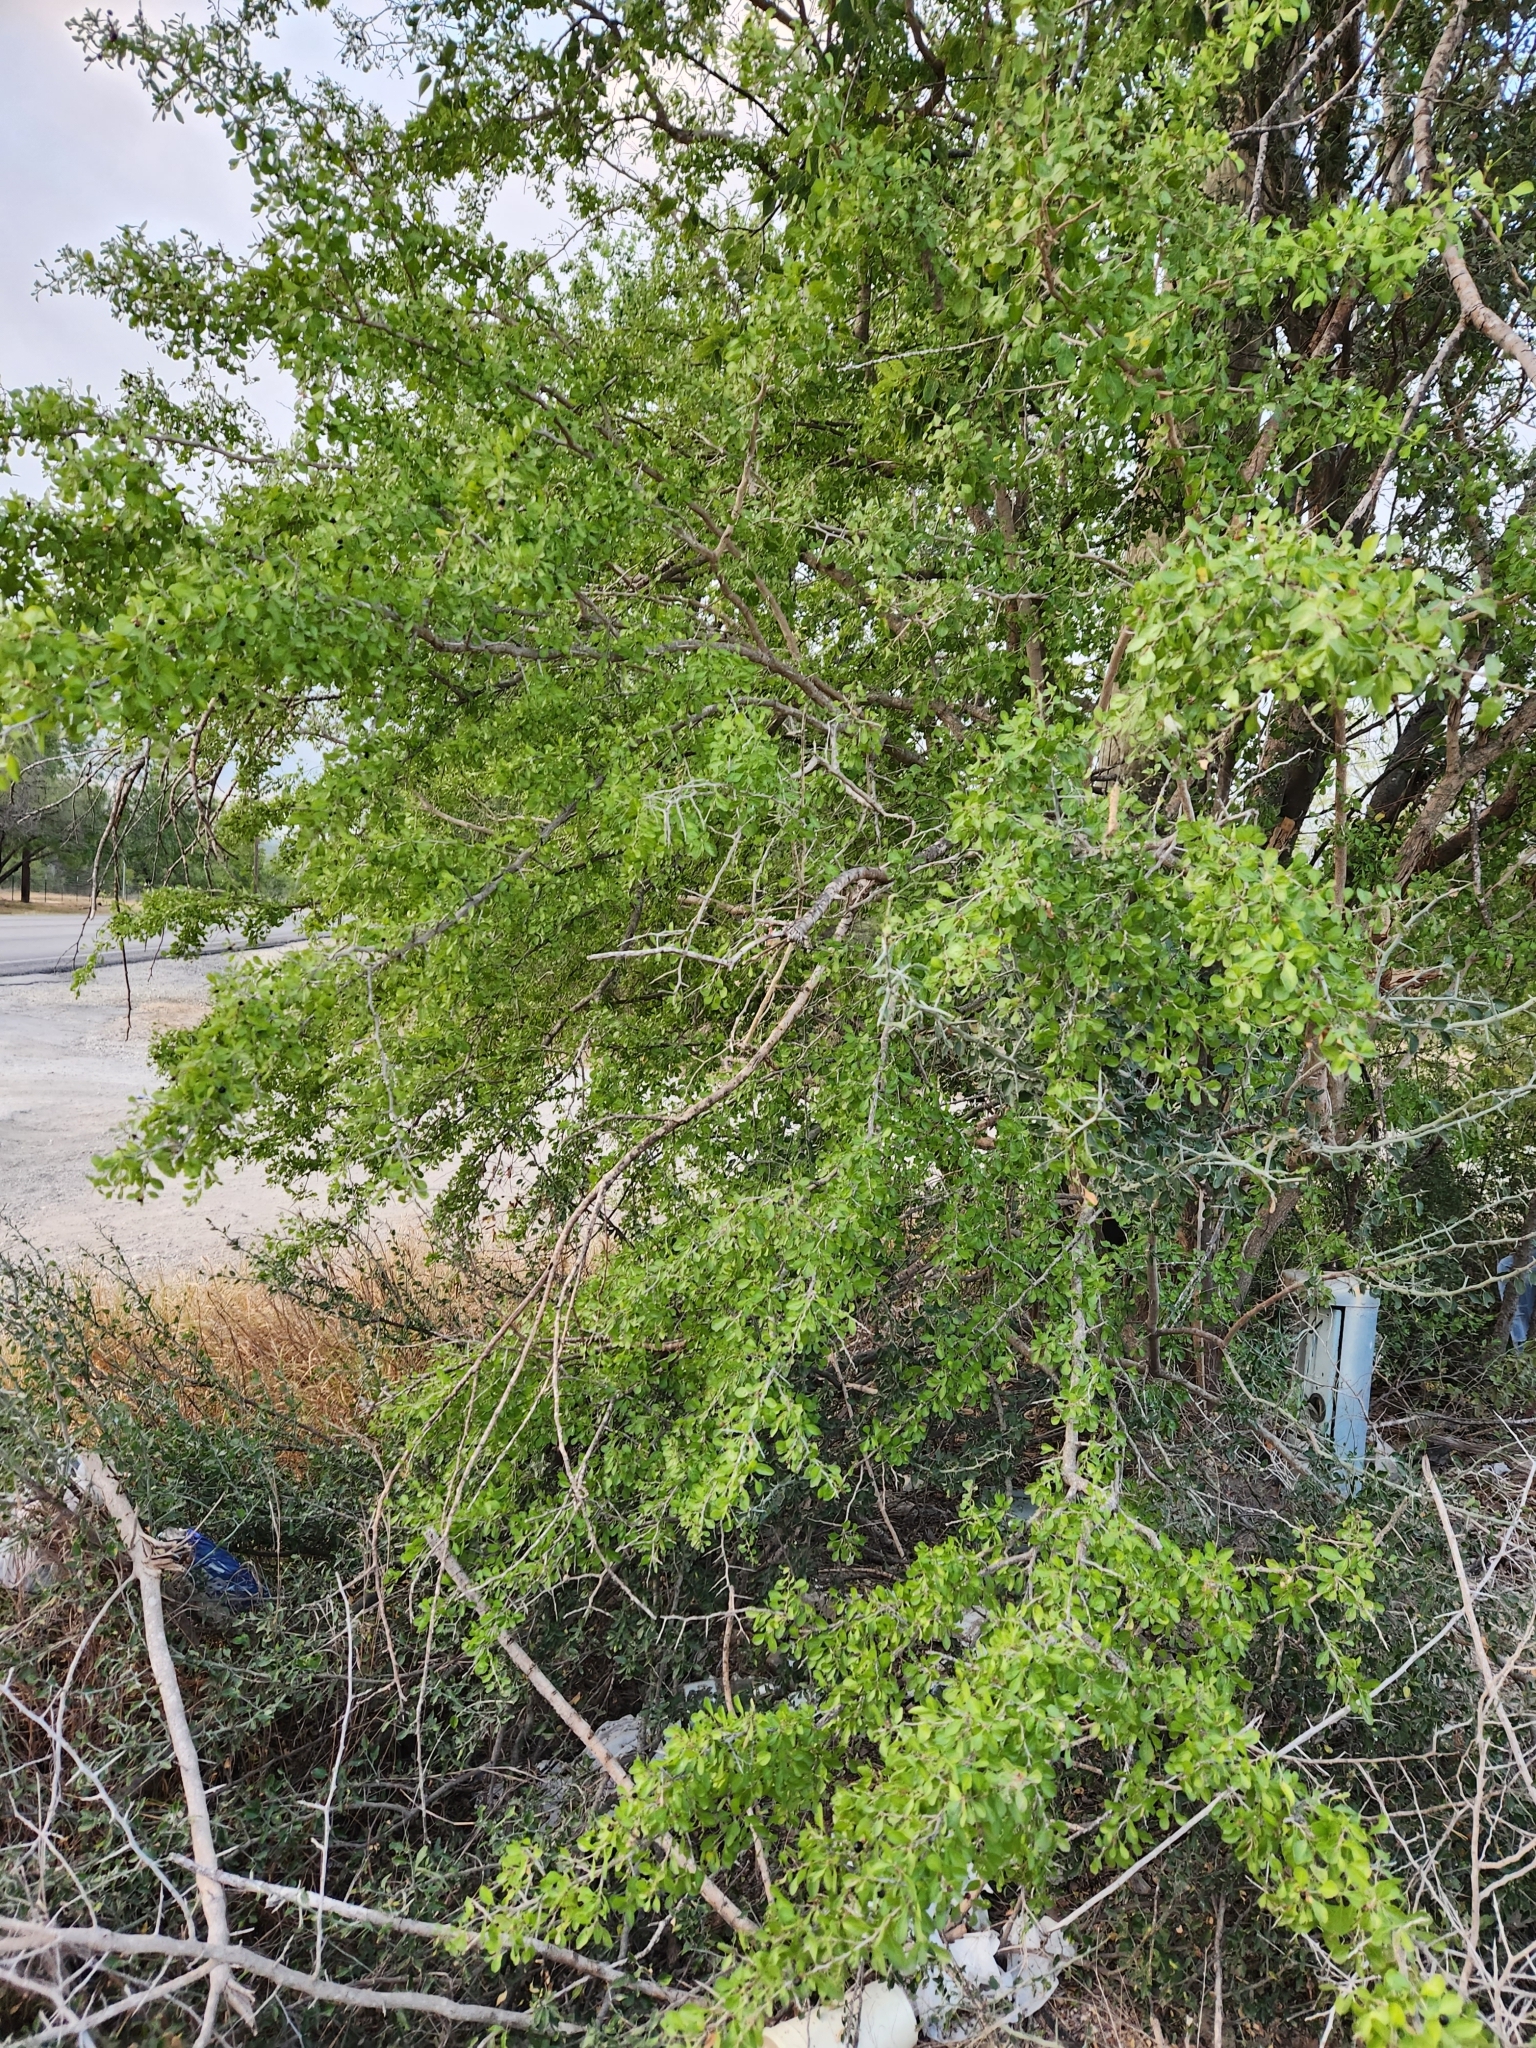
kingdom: Plantae
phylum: Tracheophyta
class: Magnoliopsida
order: Rosales
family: Rhamnaceae
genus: Condalia
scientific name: Condalia hookeri
